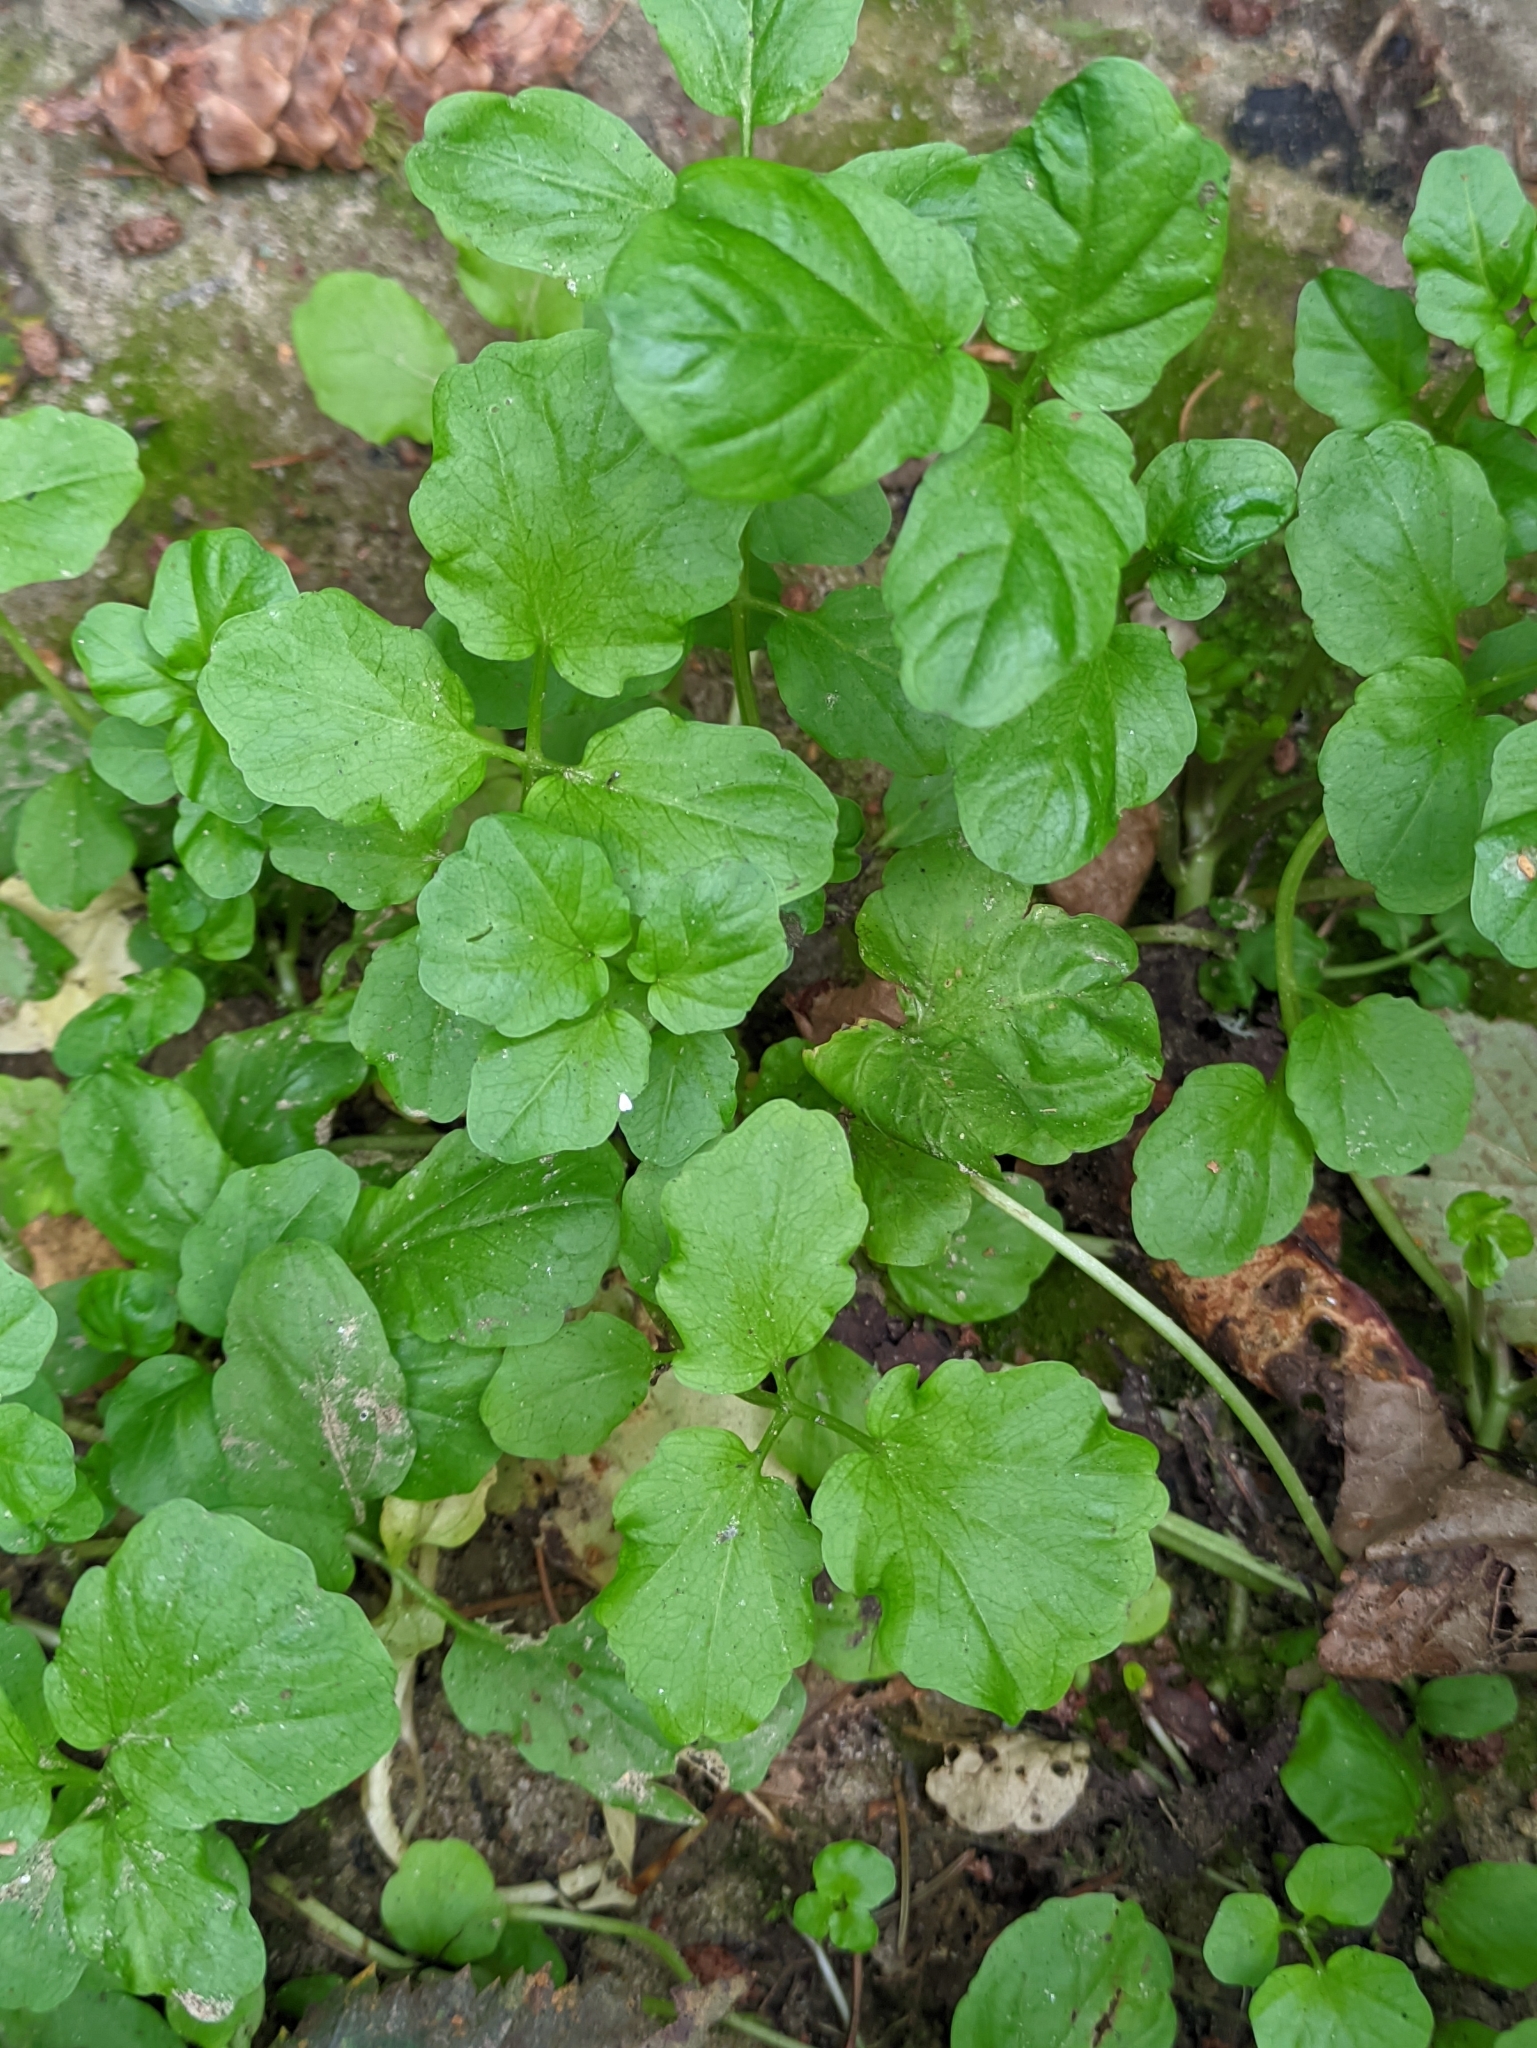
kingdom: Plantae
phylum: Tracheophyta
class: Magnoliopsida
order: Brassicales
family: Brassicaceae
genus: Cardamine
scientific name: Cardamine amara
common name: Large bitter-cress
